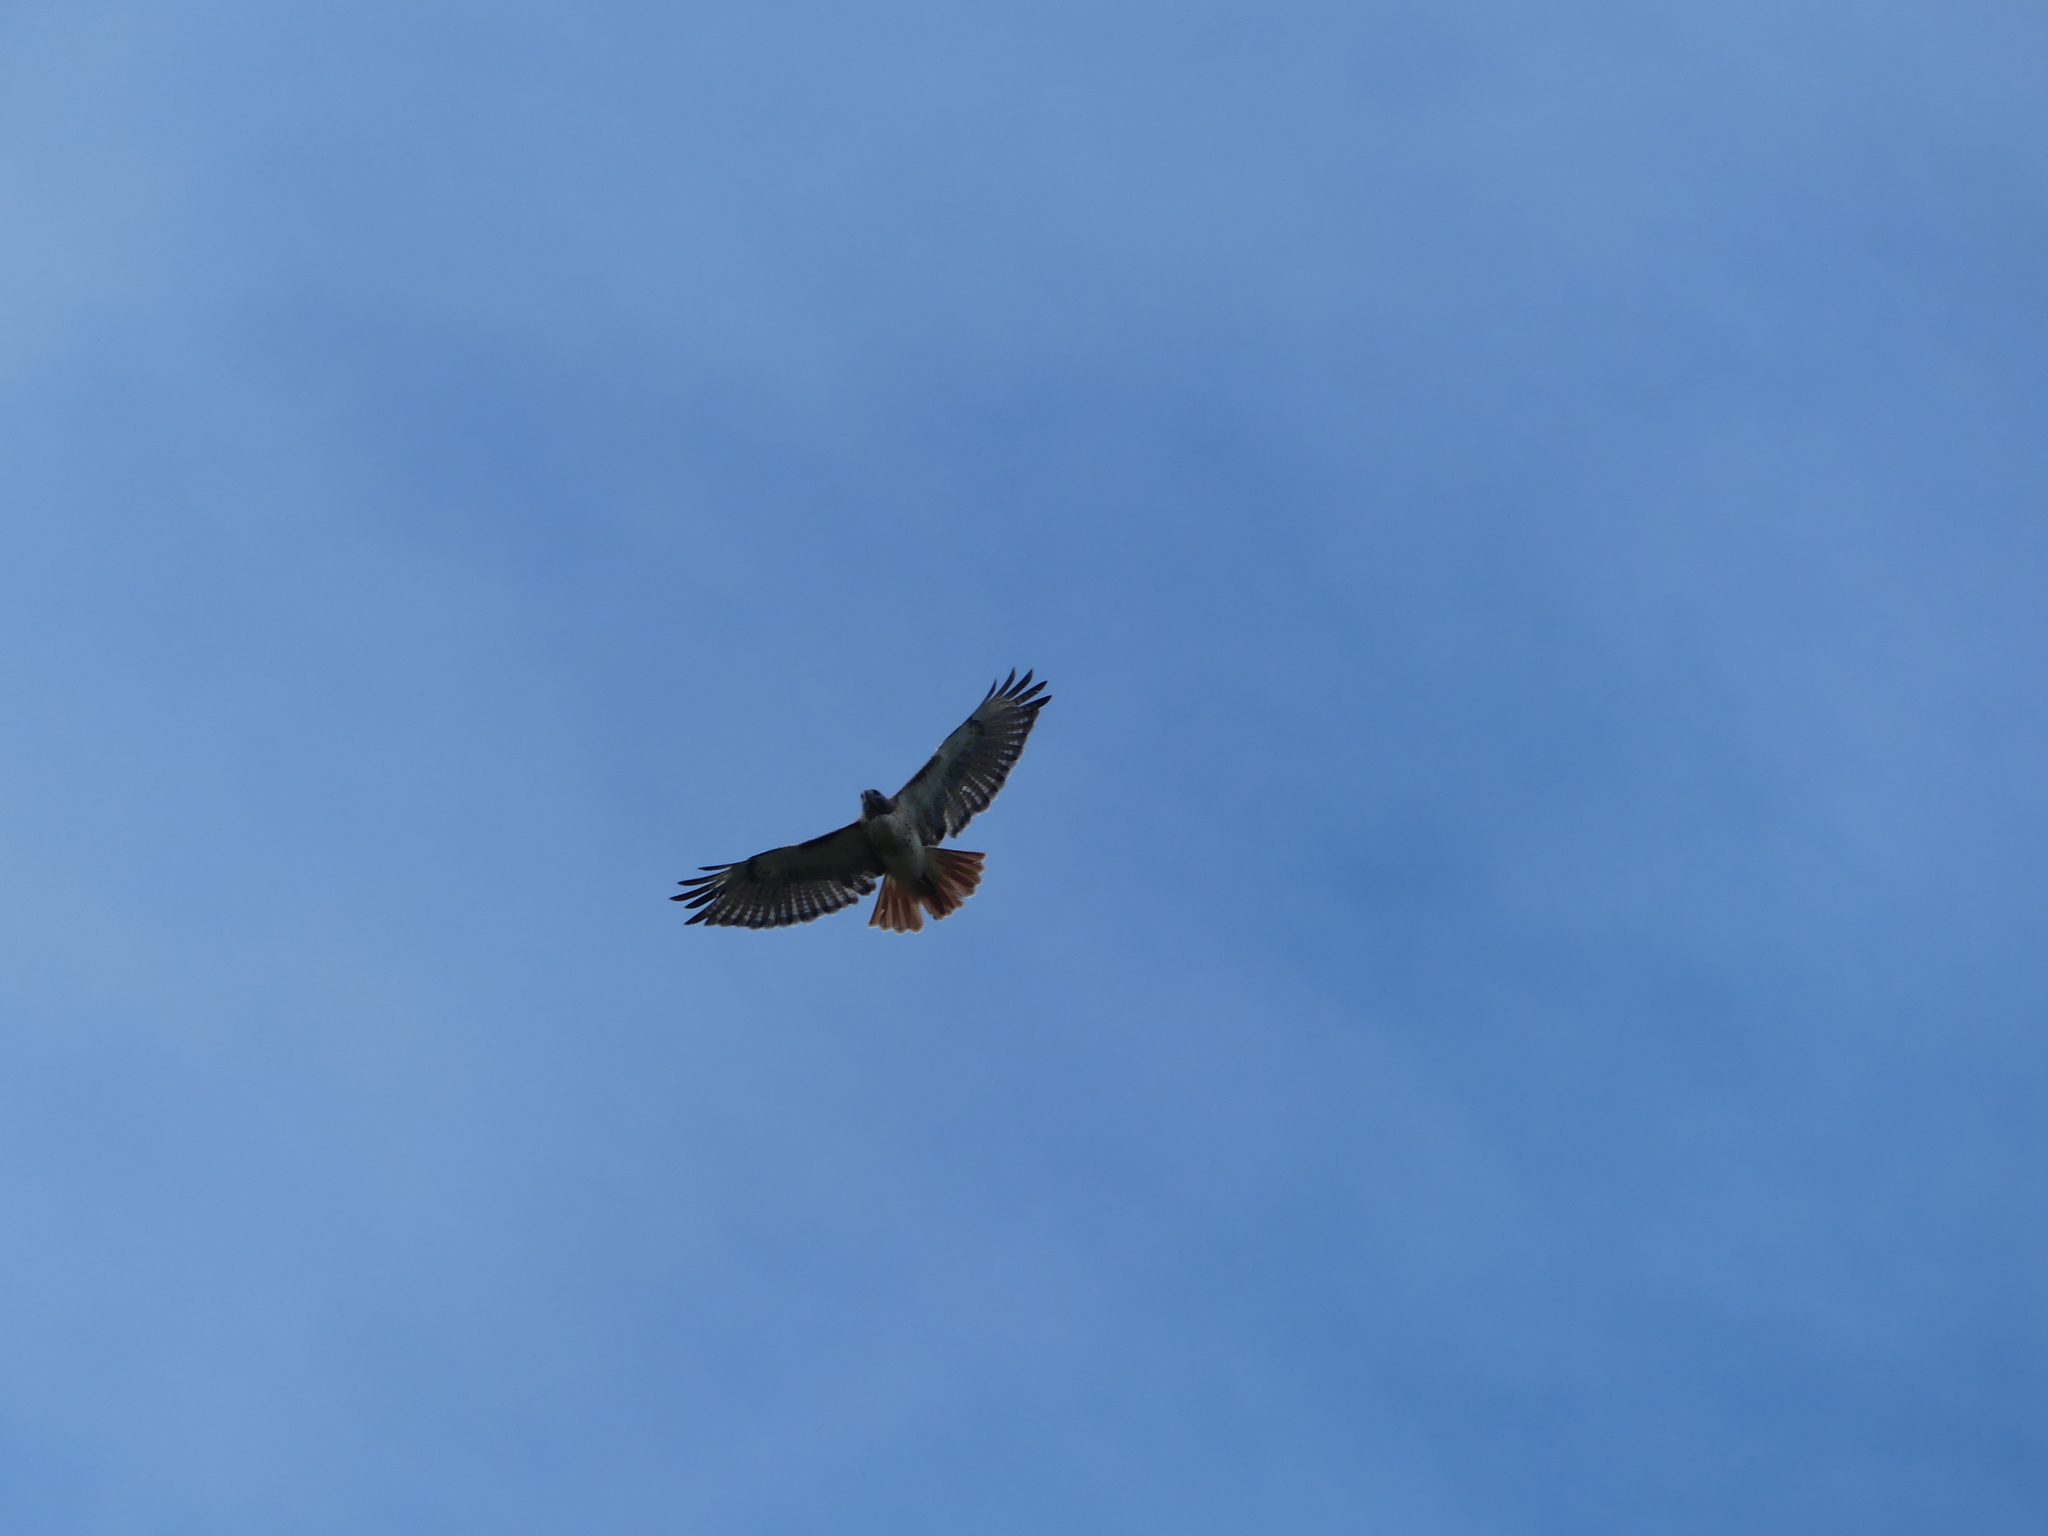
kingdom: Animalia
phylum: Chordata
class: Aves
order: Accipitriformes
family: Accipitridae
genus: Buteo
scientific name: Buteo jamaicensis
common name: Red-tailed hawk
